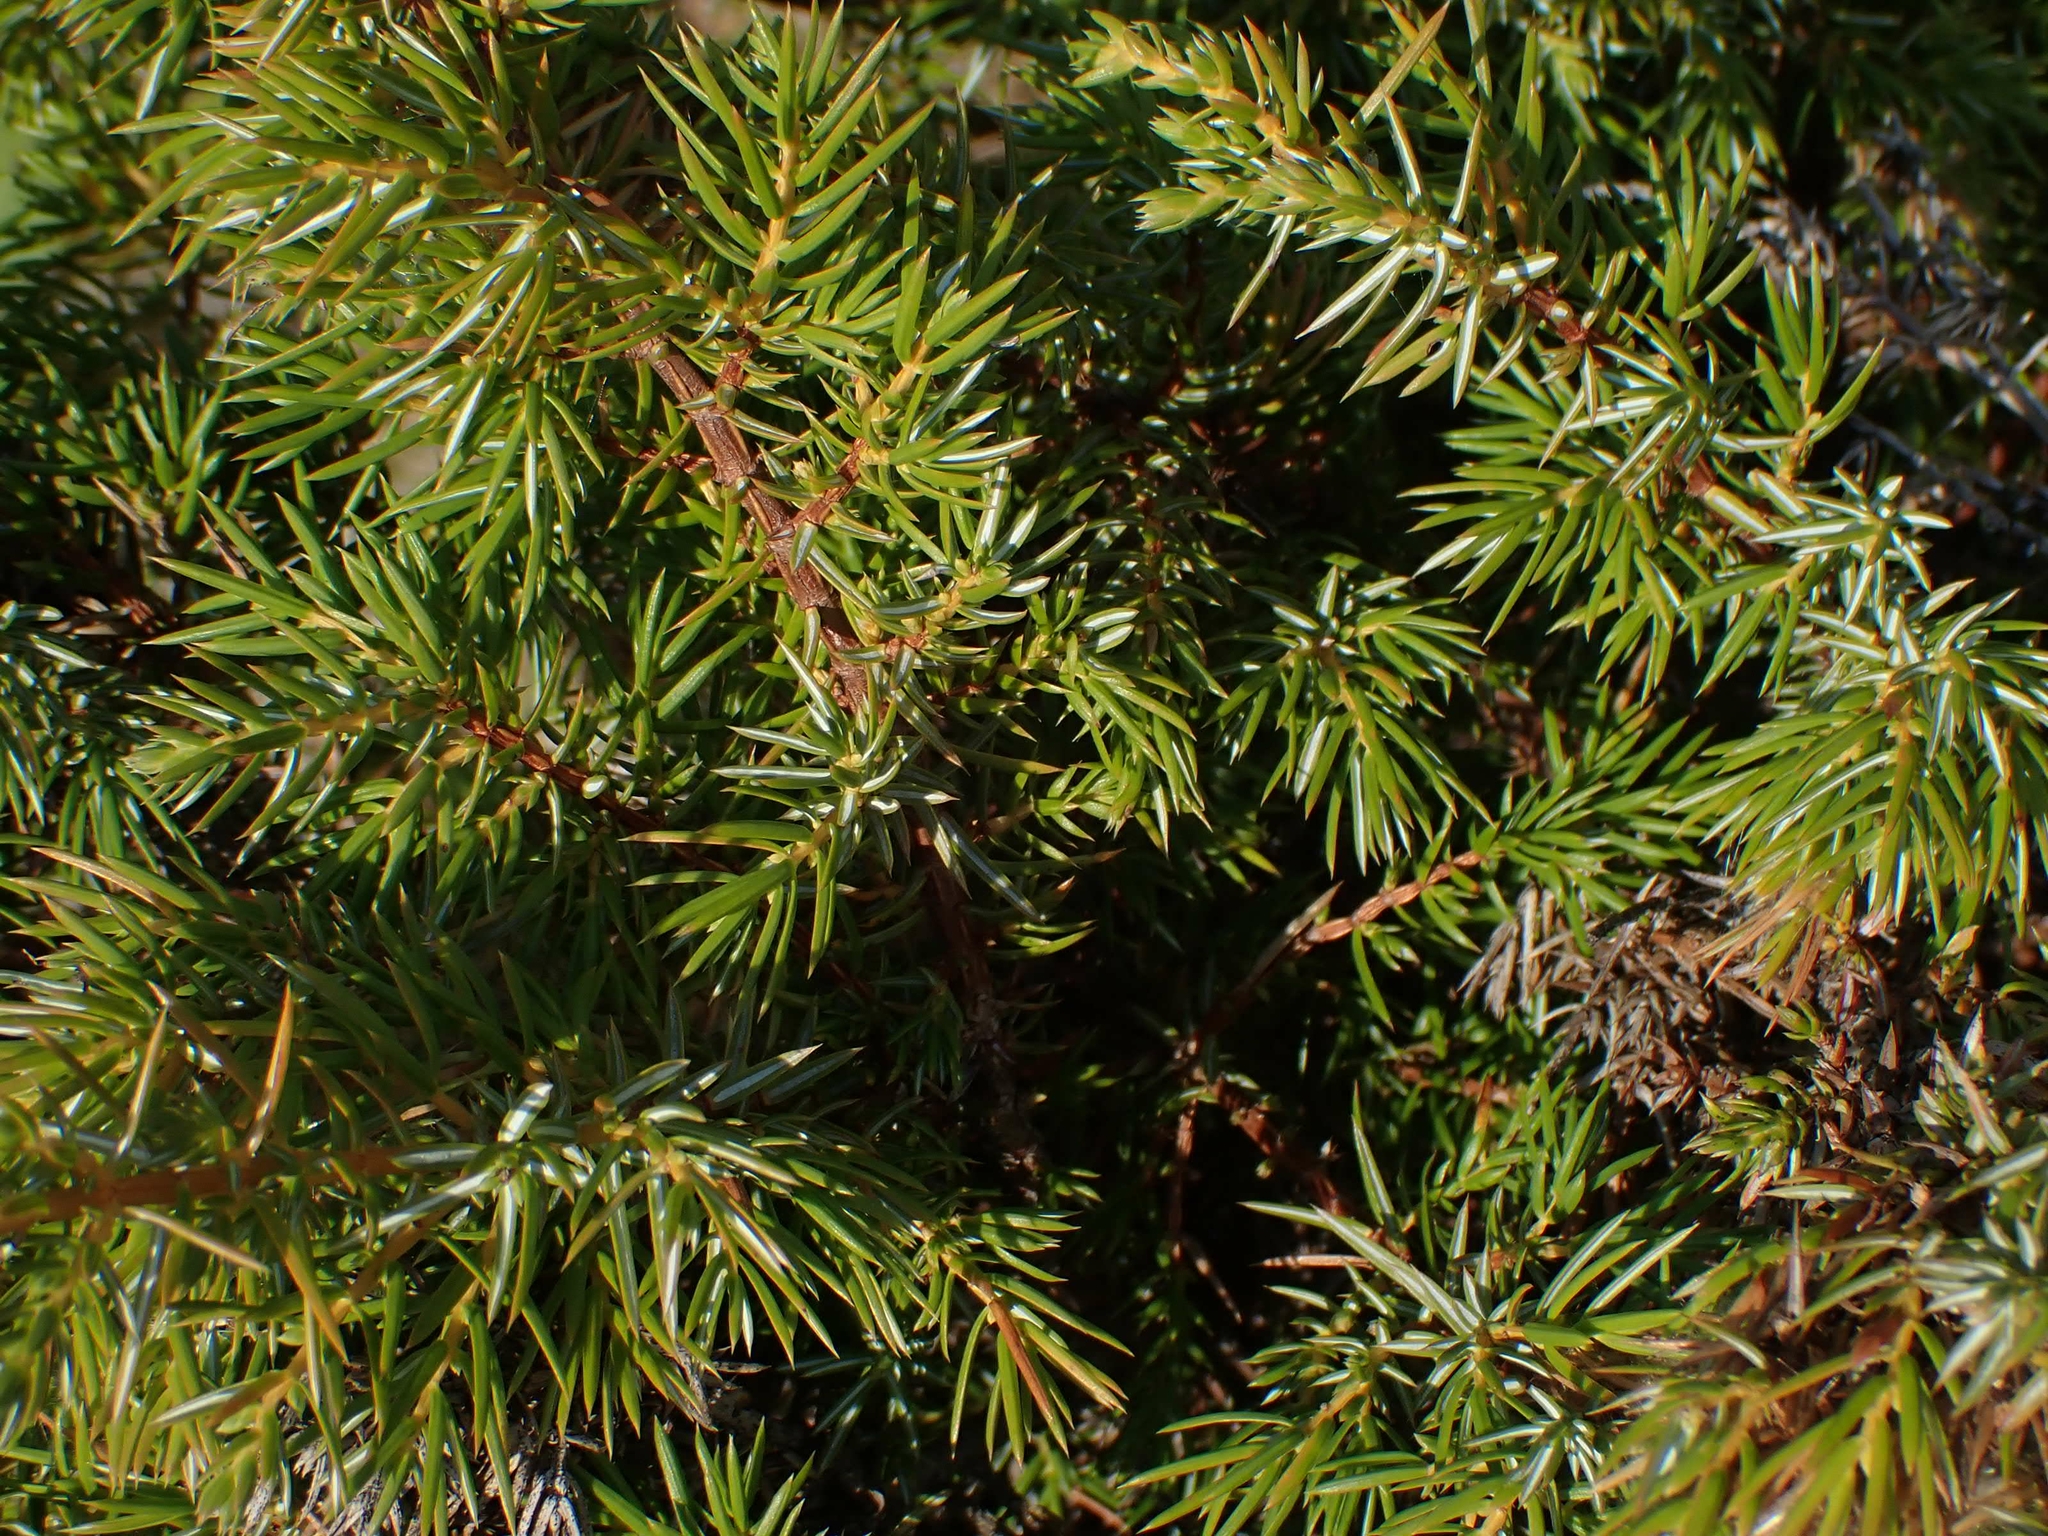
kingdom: Plantae
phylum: Tracheophyta
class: Pinopsida
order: Pinales
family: Cupressaceae
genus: Juniperus
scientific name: Juniperus communis
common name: Common juniper
